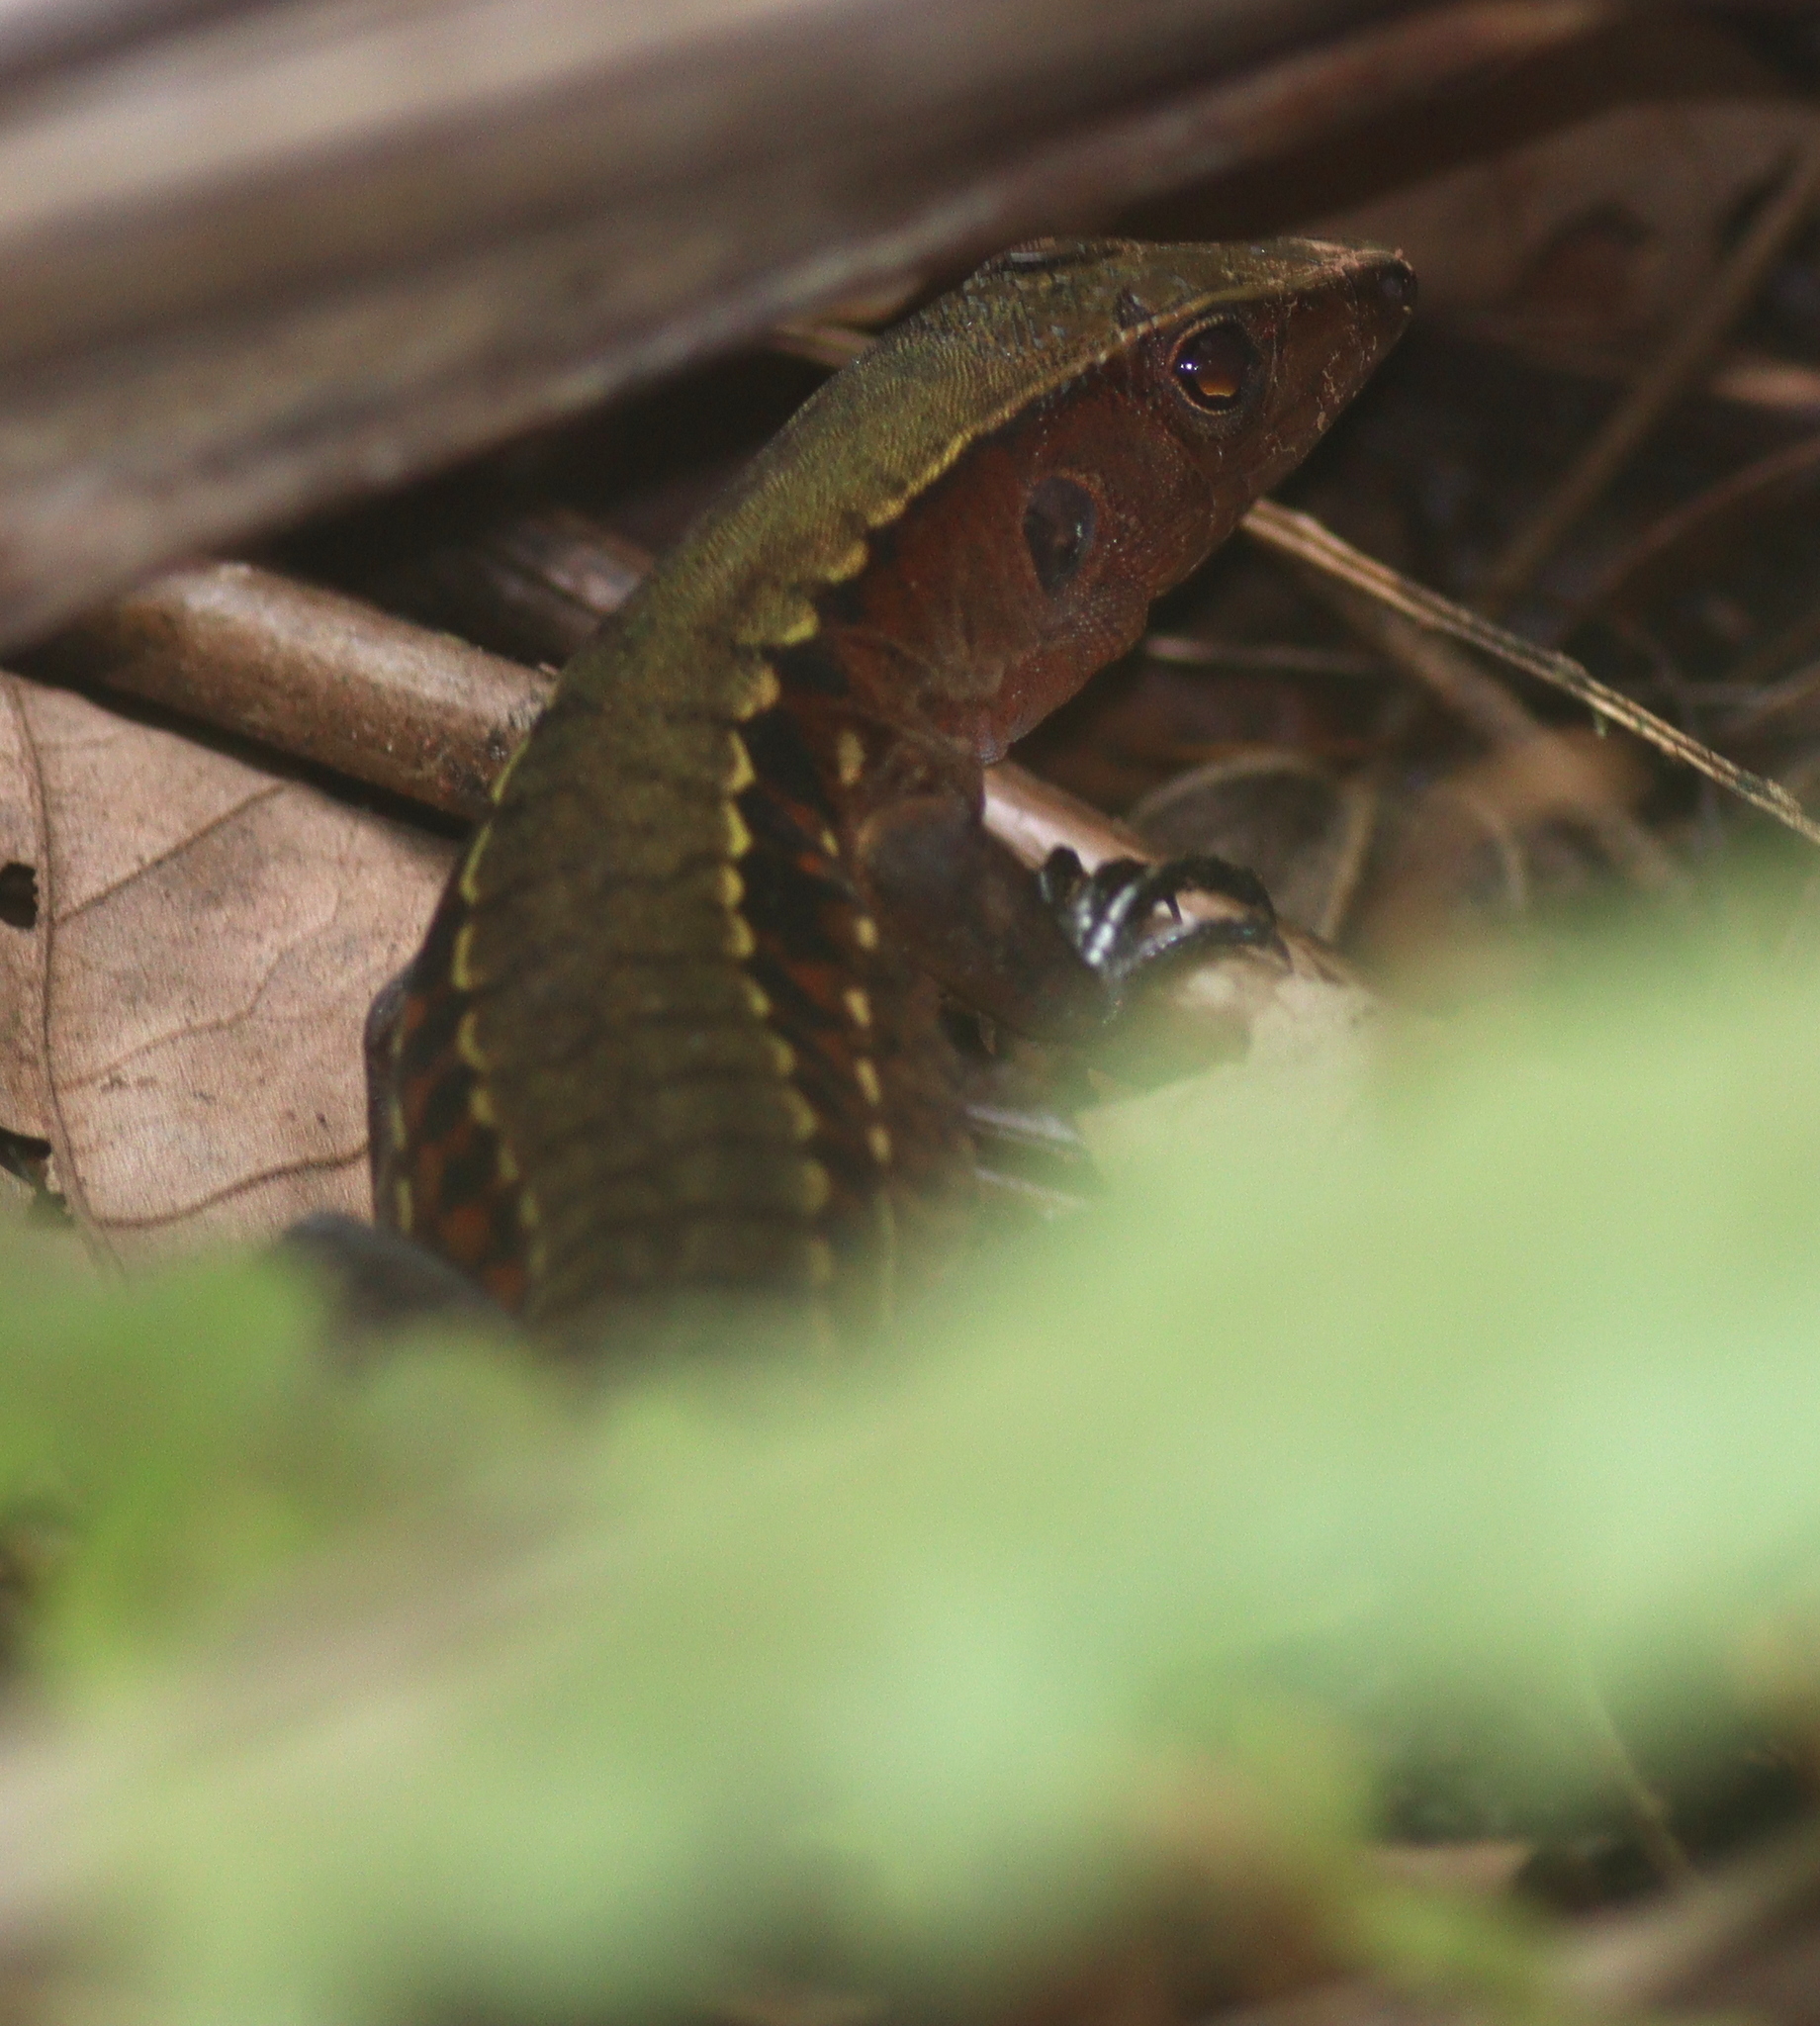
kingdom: Animalia
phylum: Chordata
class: Squamata
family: Teiidae
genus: Holcosus
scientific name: Holcosus leptophrys
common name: Delicate ameiva
